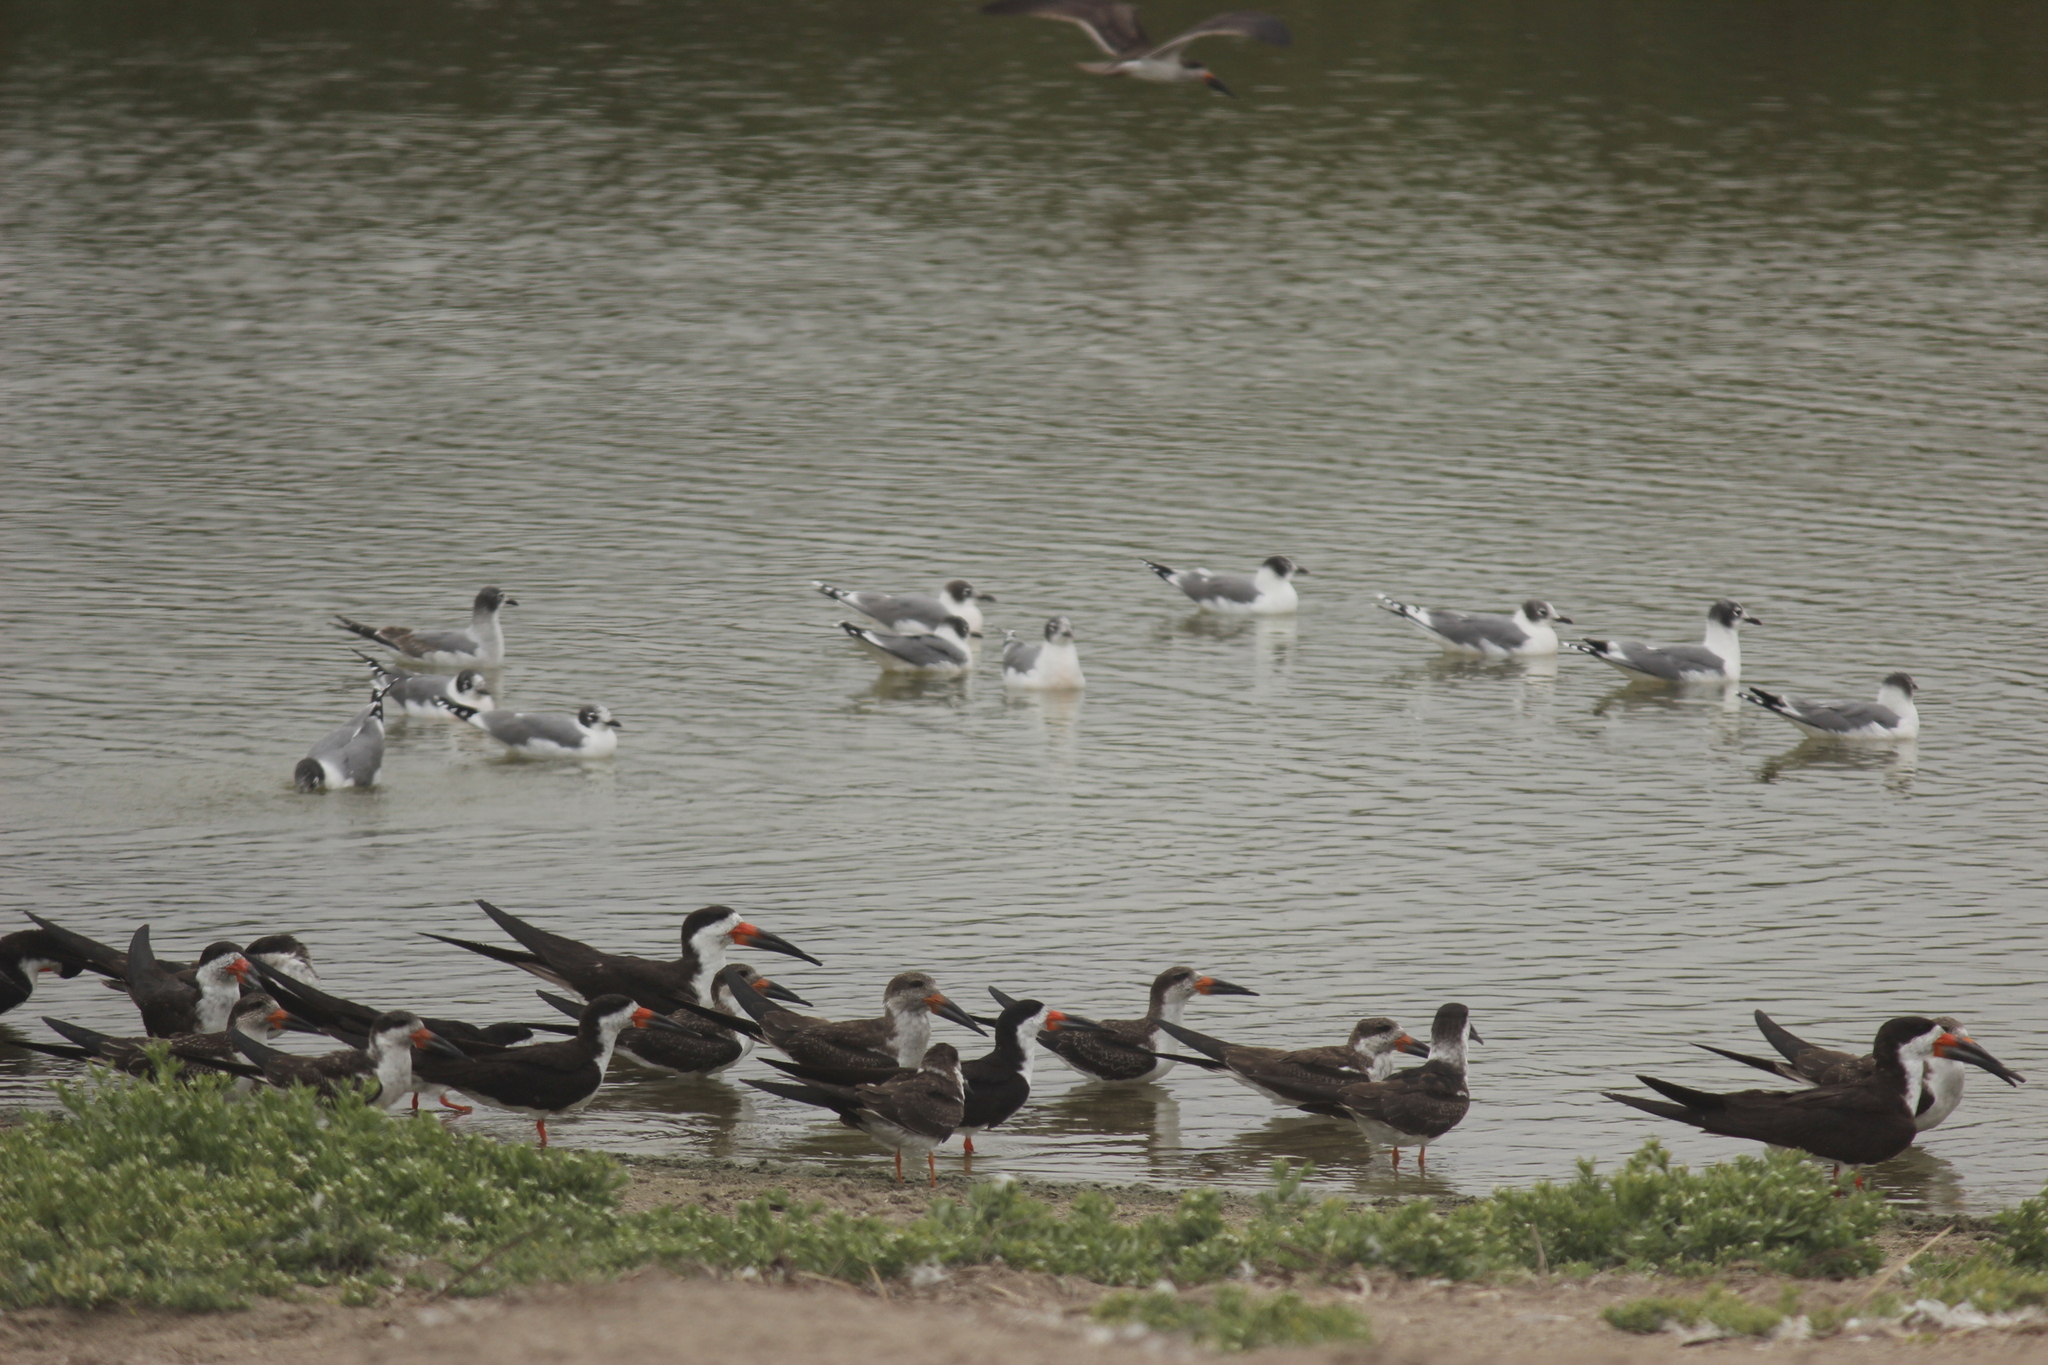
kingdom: Animalia
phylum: Chordata
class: Aves
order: Charadriiformes
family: Laridae
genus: Rynchops
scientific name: Rynchops niger
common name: Black skimmer
